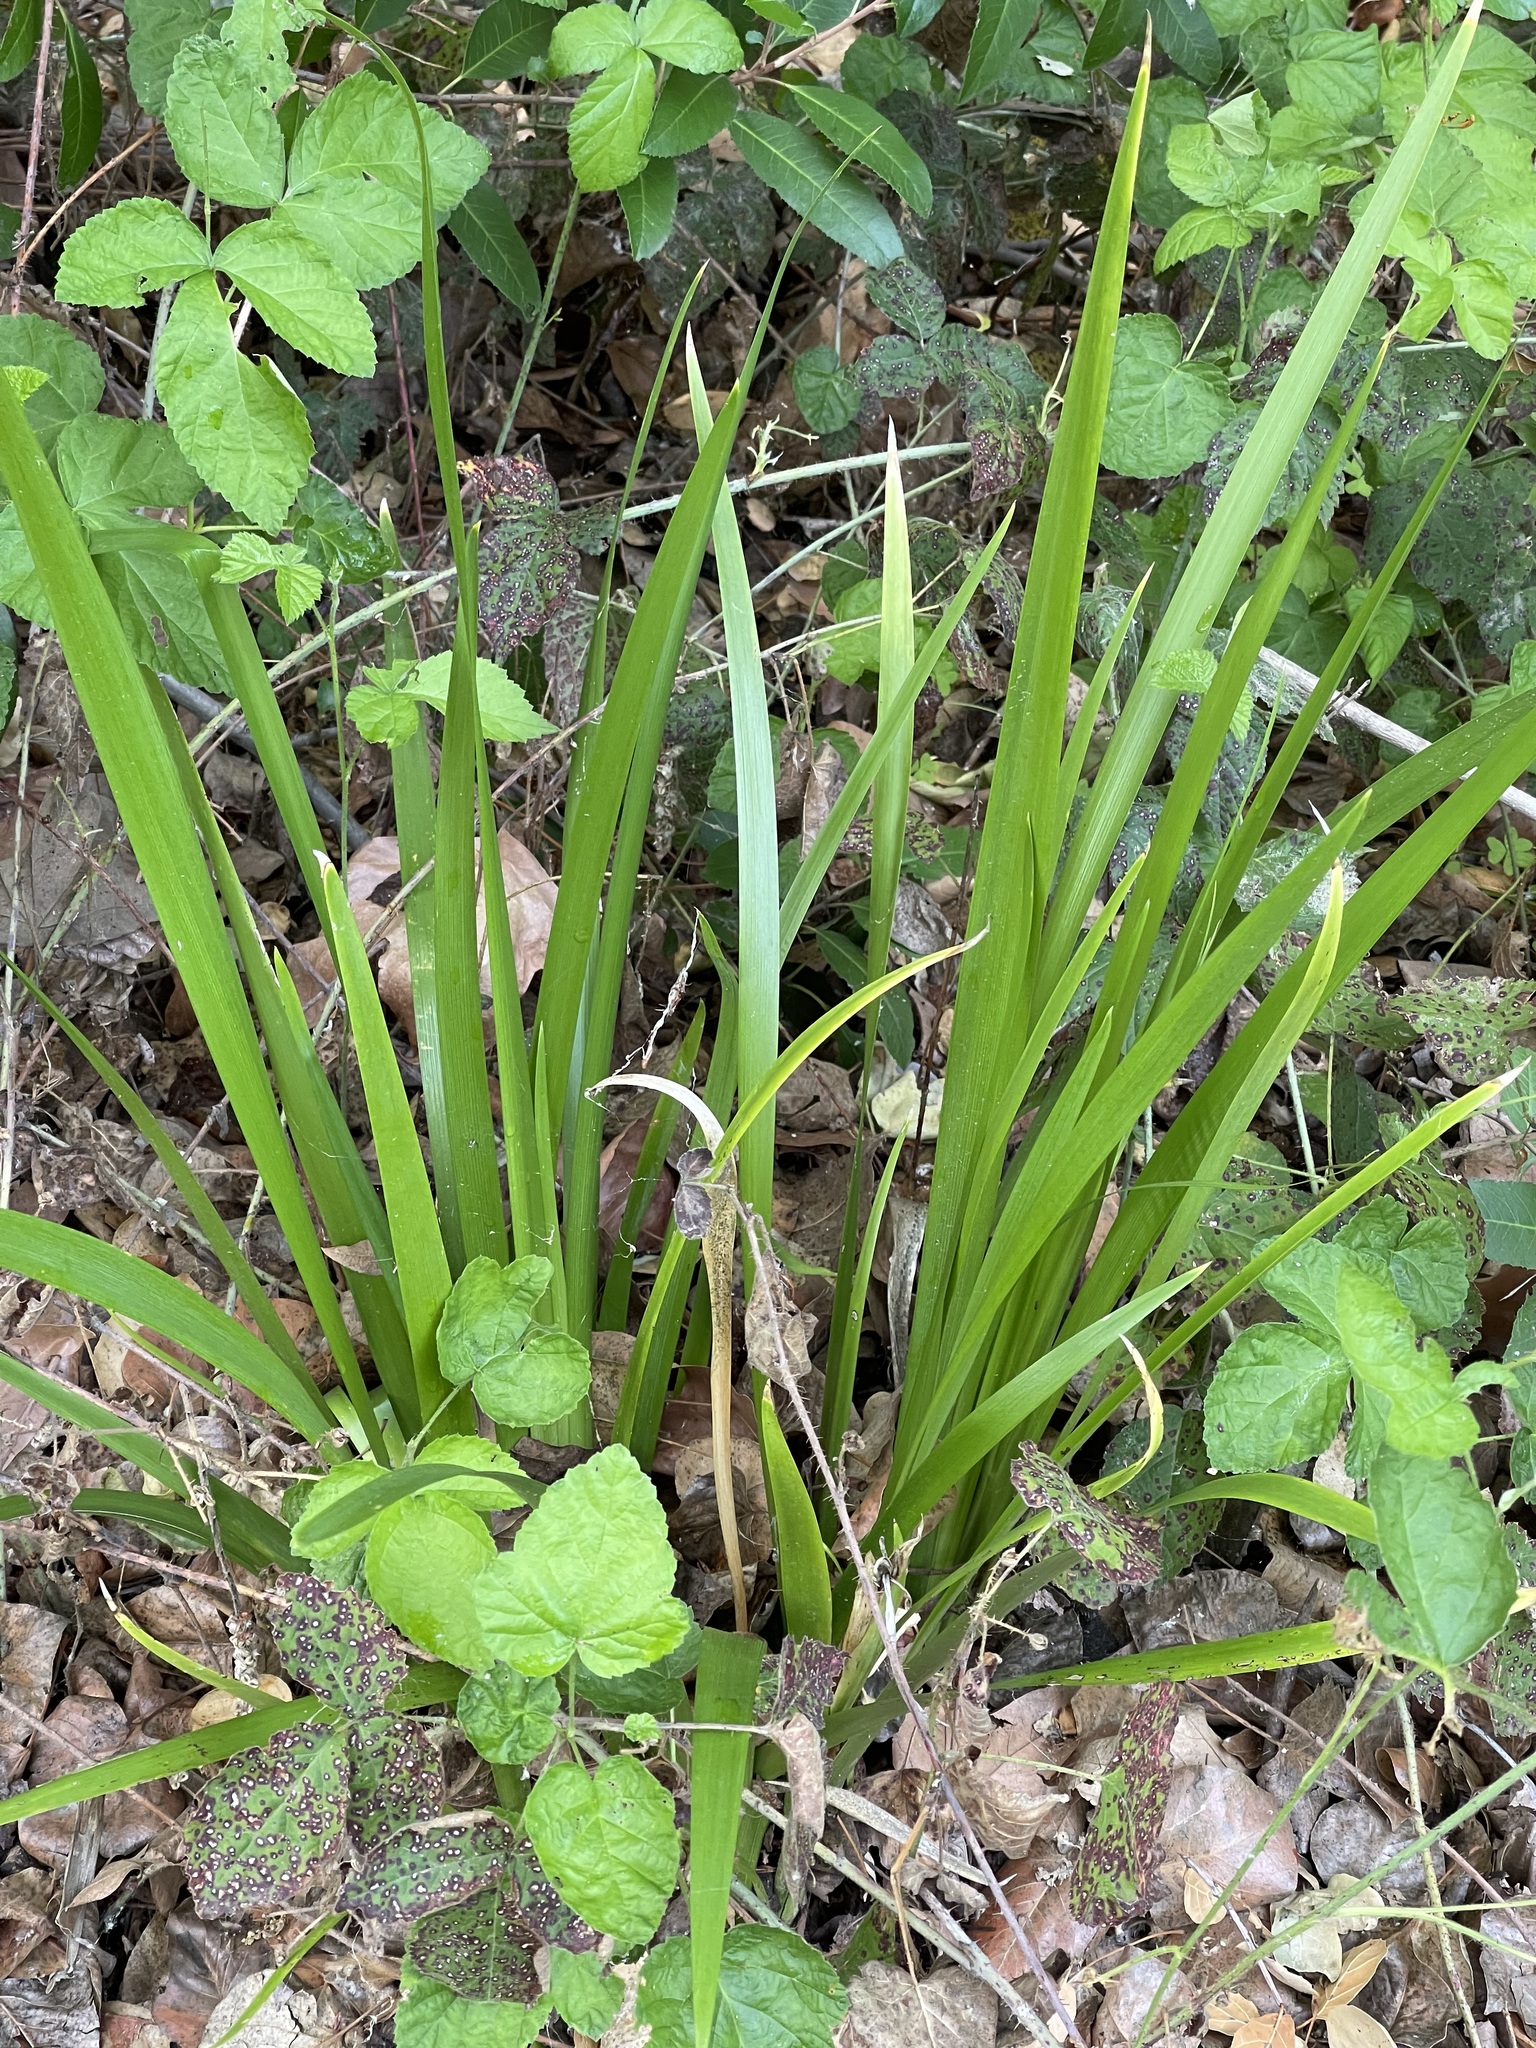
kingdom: Plantae
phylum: Tracheophyta
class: Liliopsida
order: Asparagales
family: Iridaceae
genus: Iris
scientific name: Iris foetidissima
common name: Stinking iris
